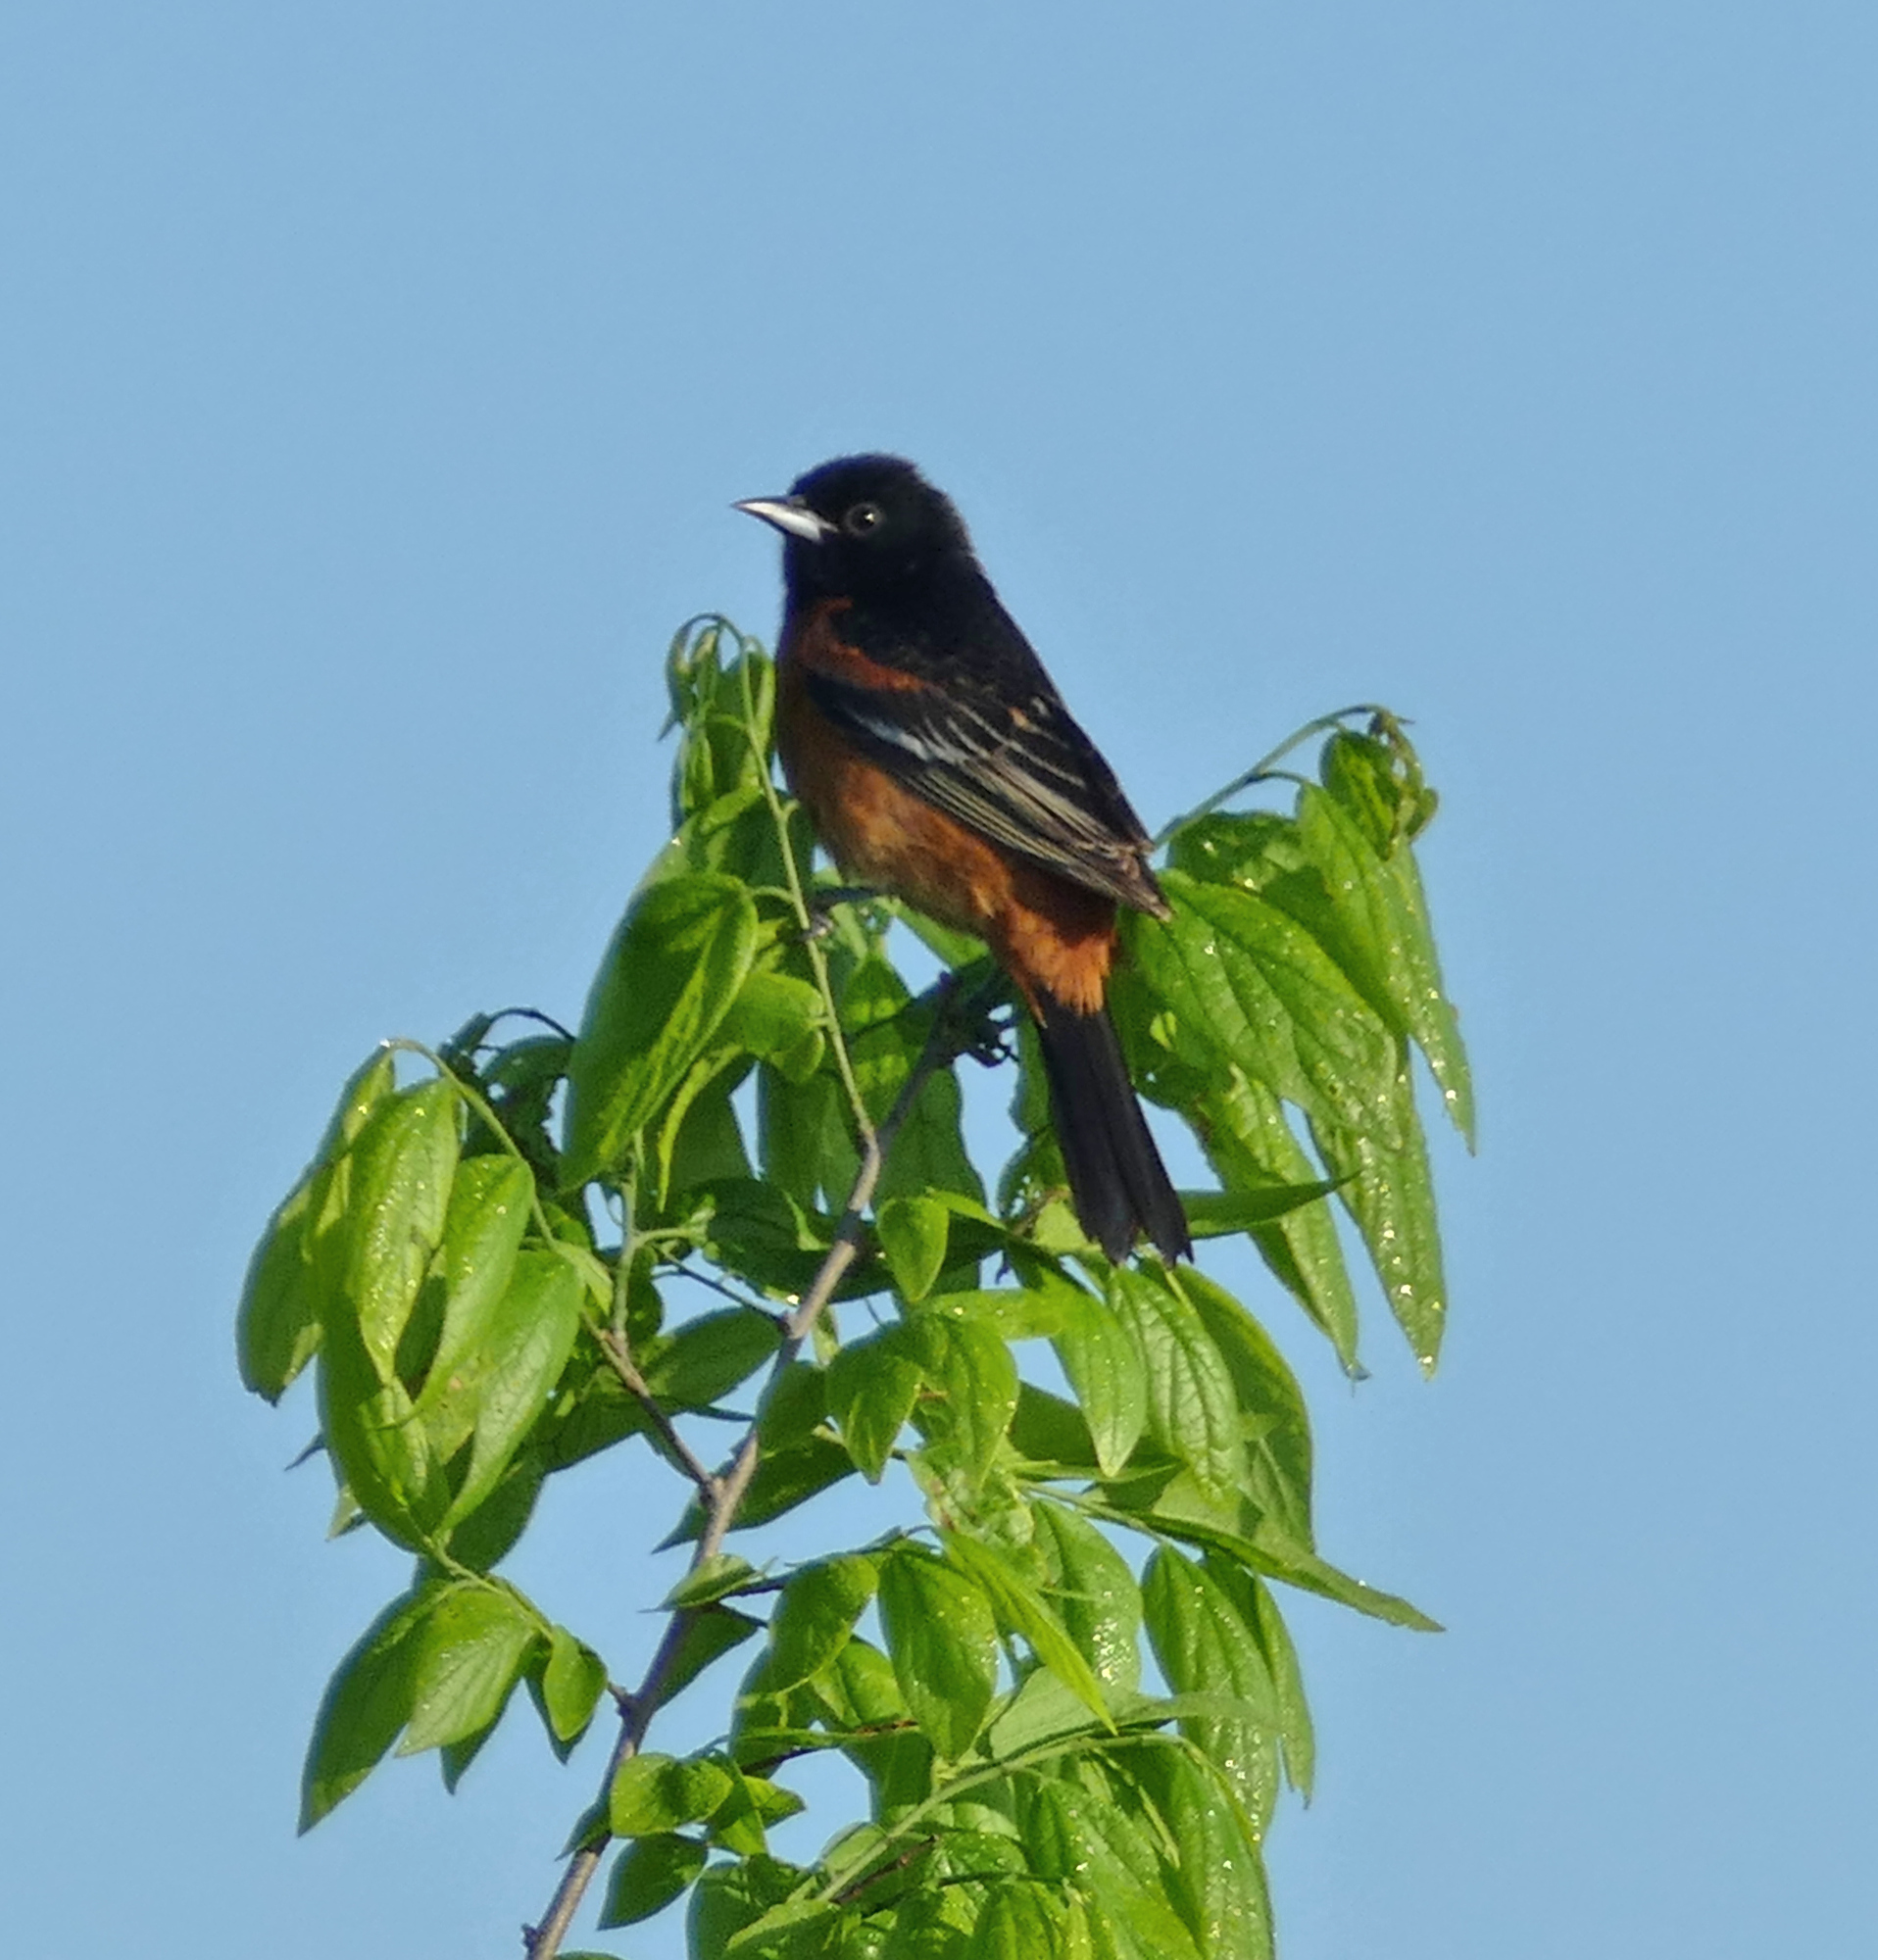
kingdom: Animalia
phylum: Chordata
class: Aves
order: Passeriformes
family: Icteridae
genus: Icterus
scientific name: Icterus spurius
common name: Orchard oriole
